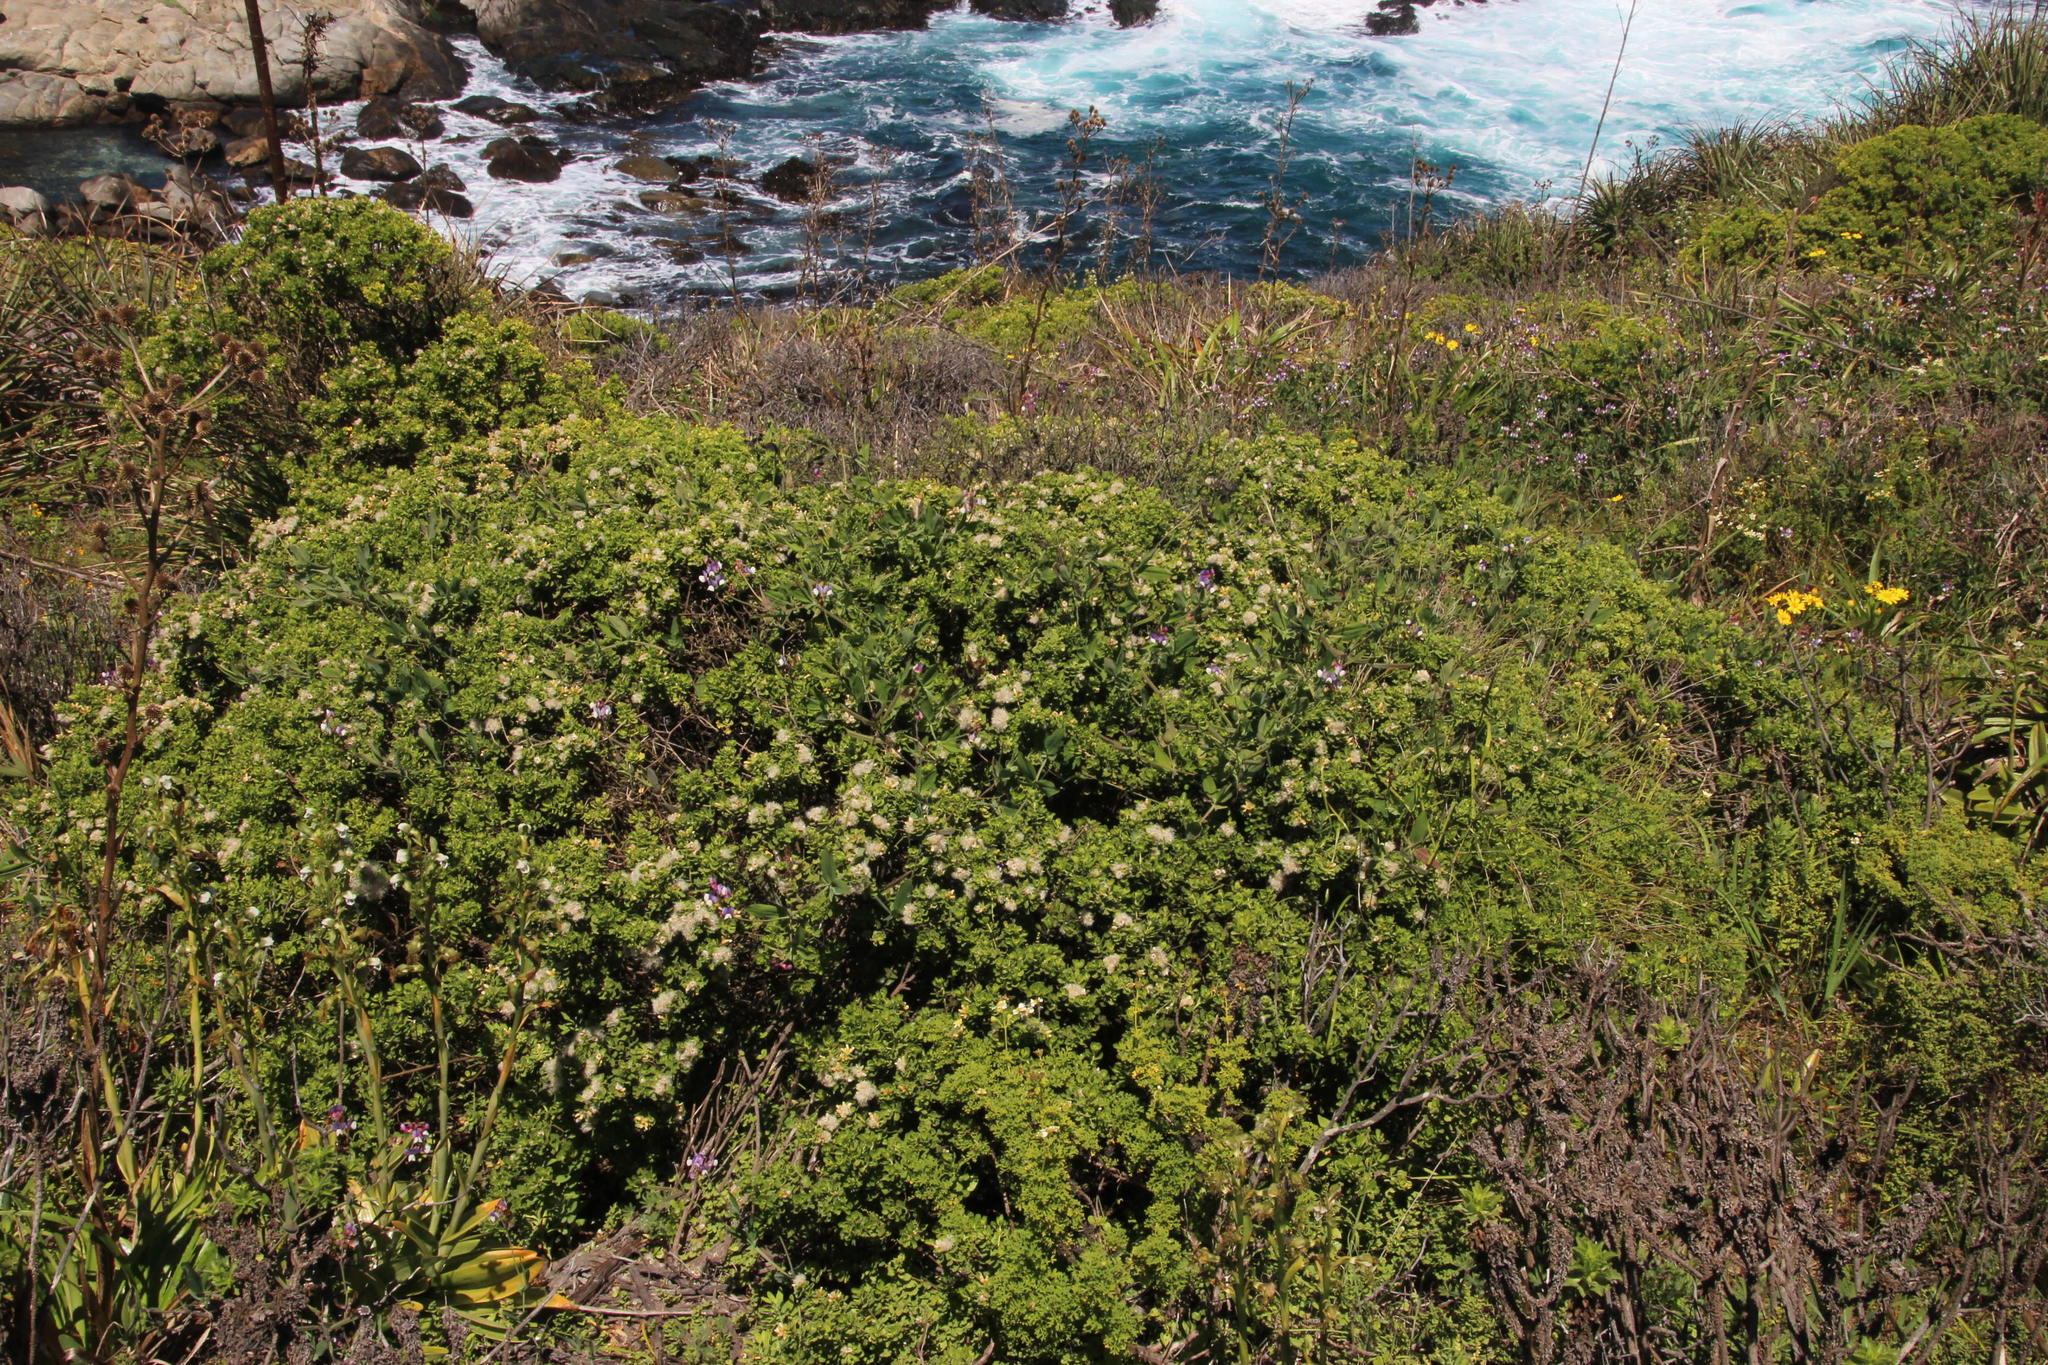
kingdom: Plantae
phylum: Tracheophyta
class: Magnoliopsida
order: Asterales
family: Asteraceae
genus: Baccharis
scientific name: Baccharis macraei
